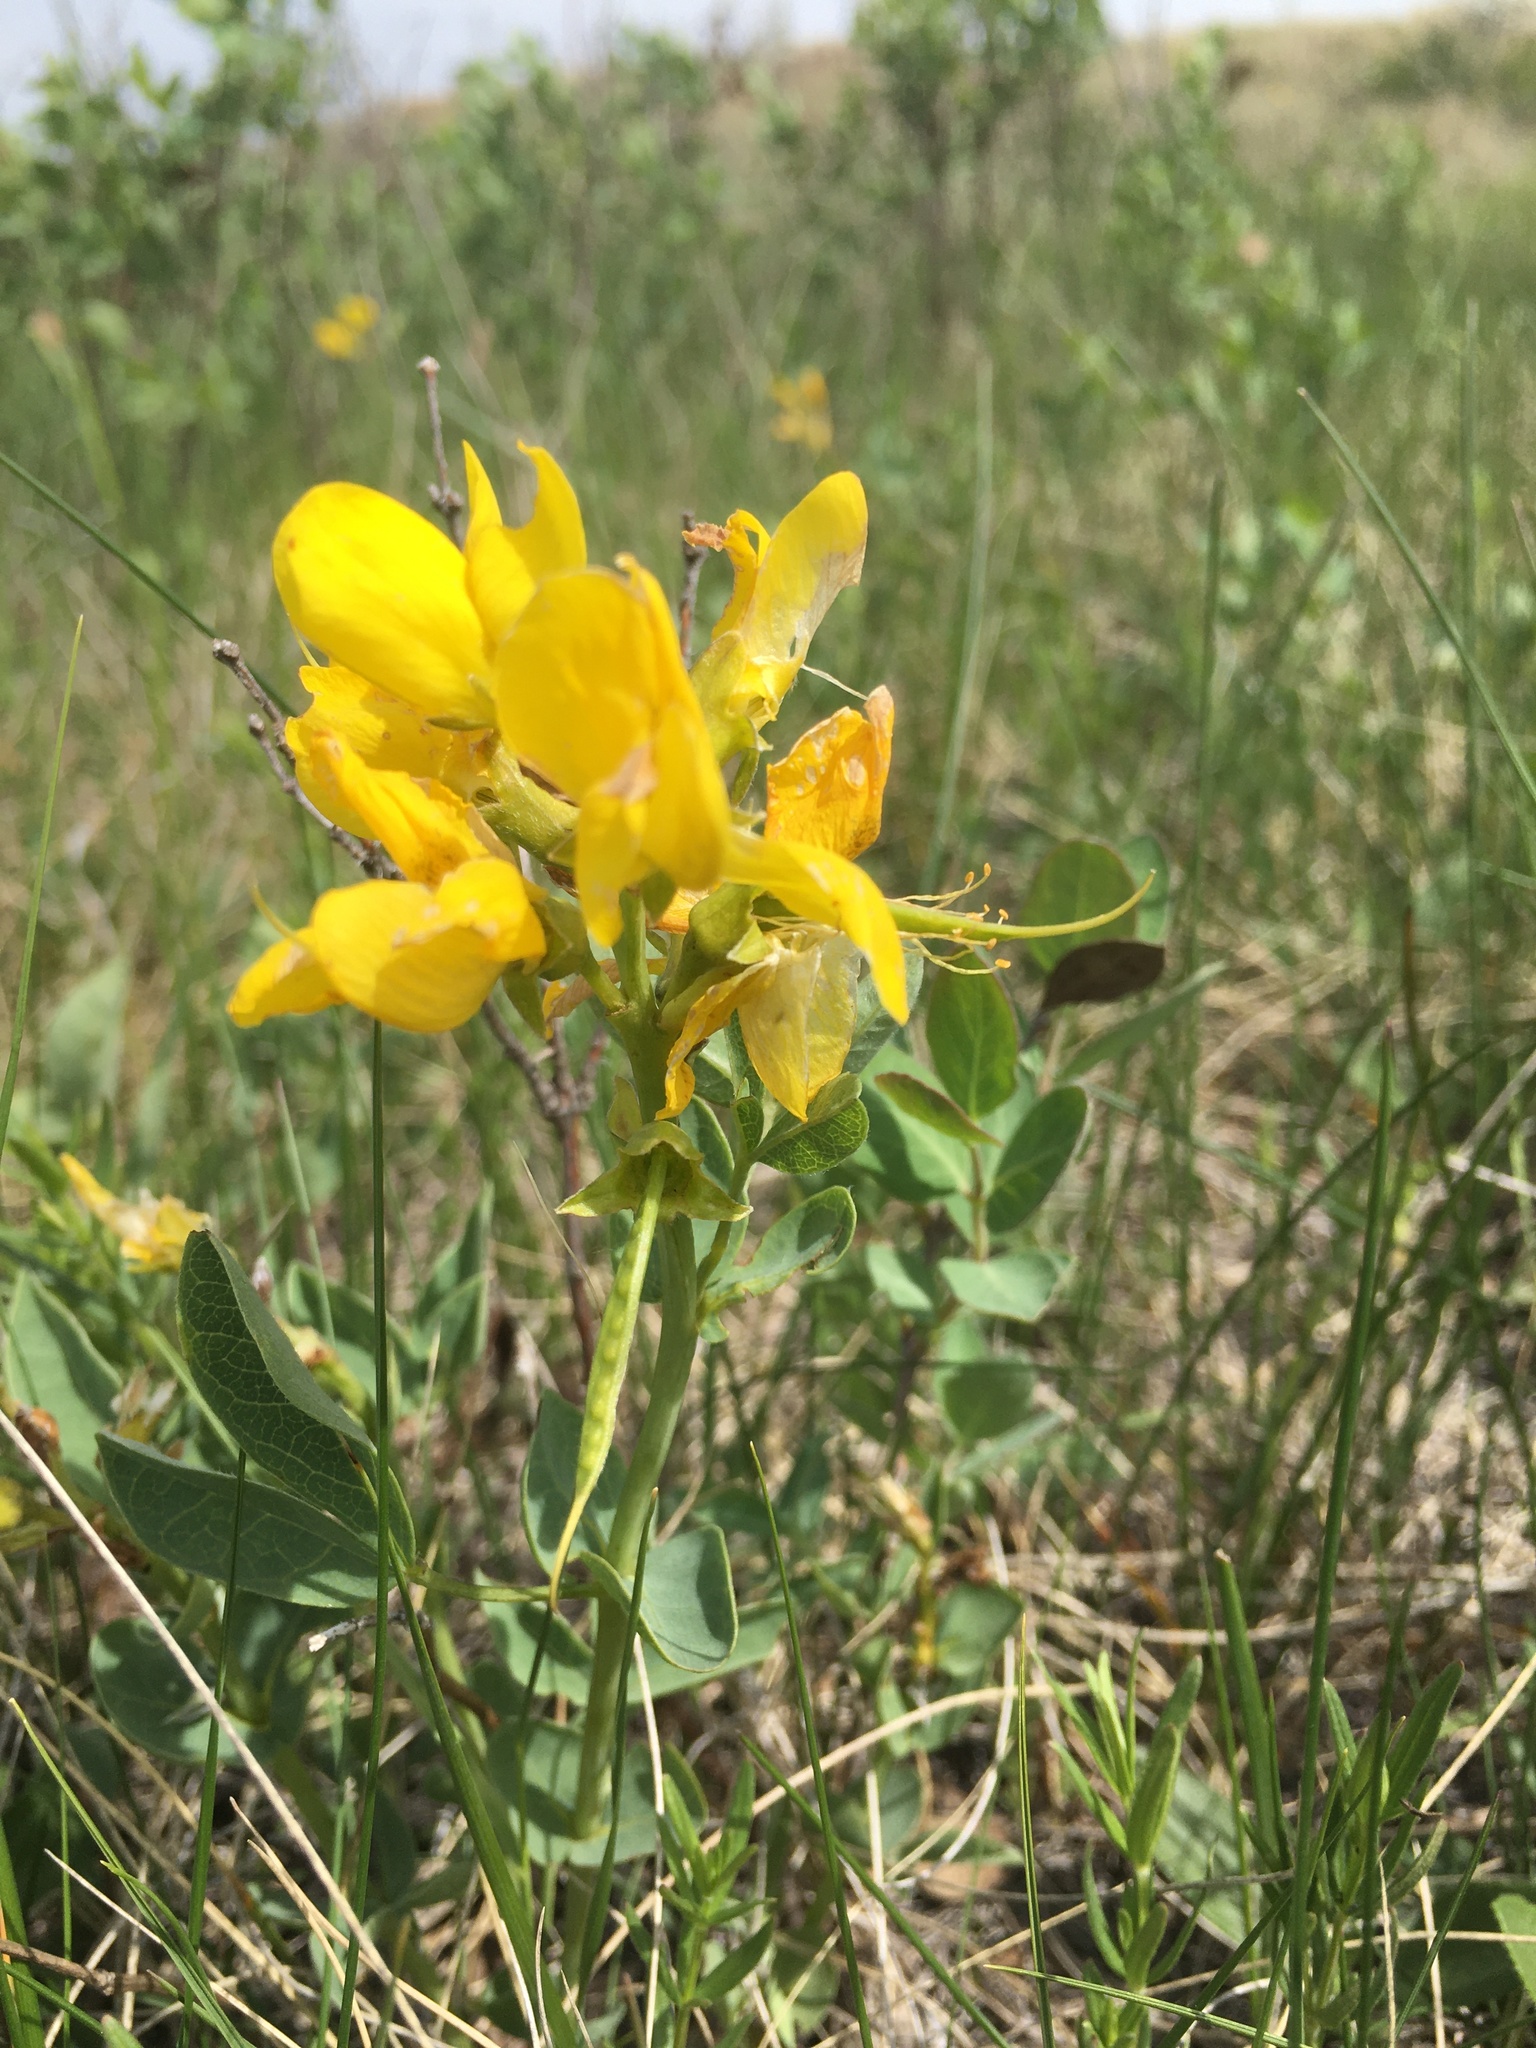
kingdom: Plantae
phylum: Tracheophyta
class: Magnoliopsida
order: Fabales
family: Fabaceae
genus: Thermopsis
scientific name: Thermopsis rhombifolia
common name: Circle-pod-pea
